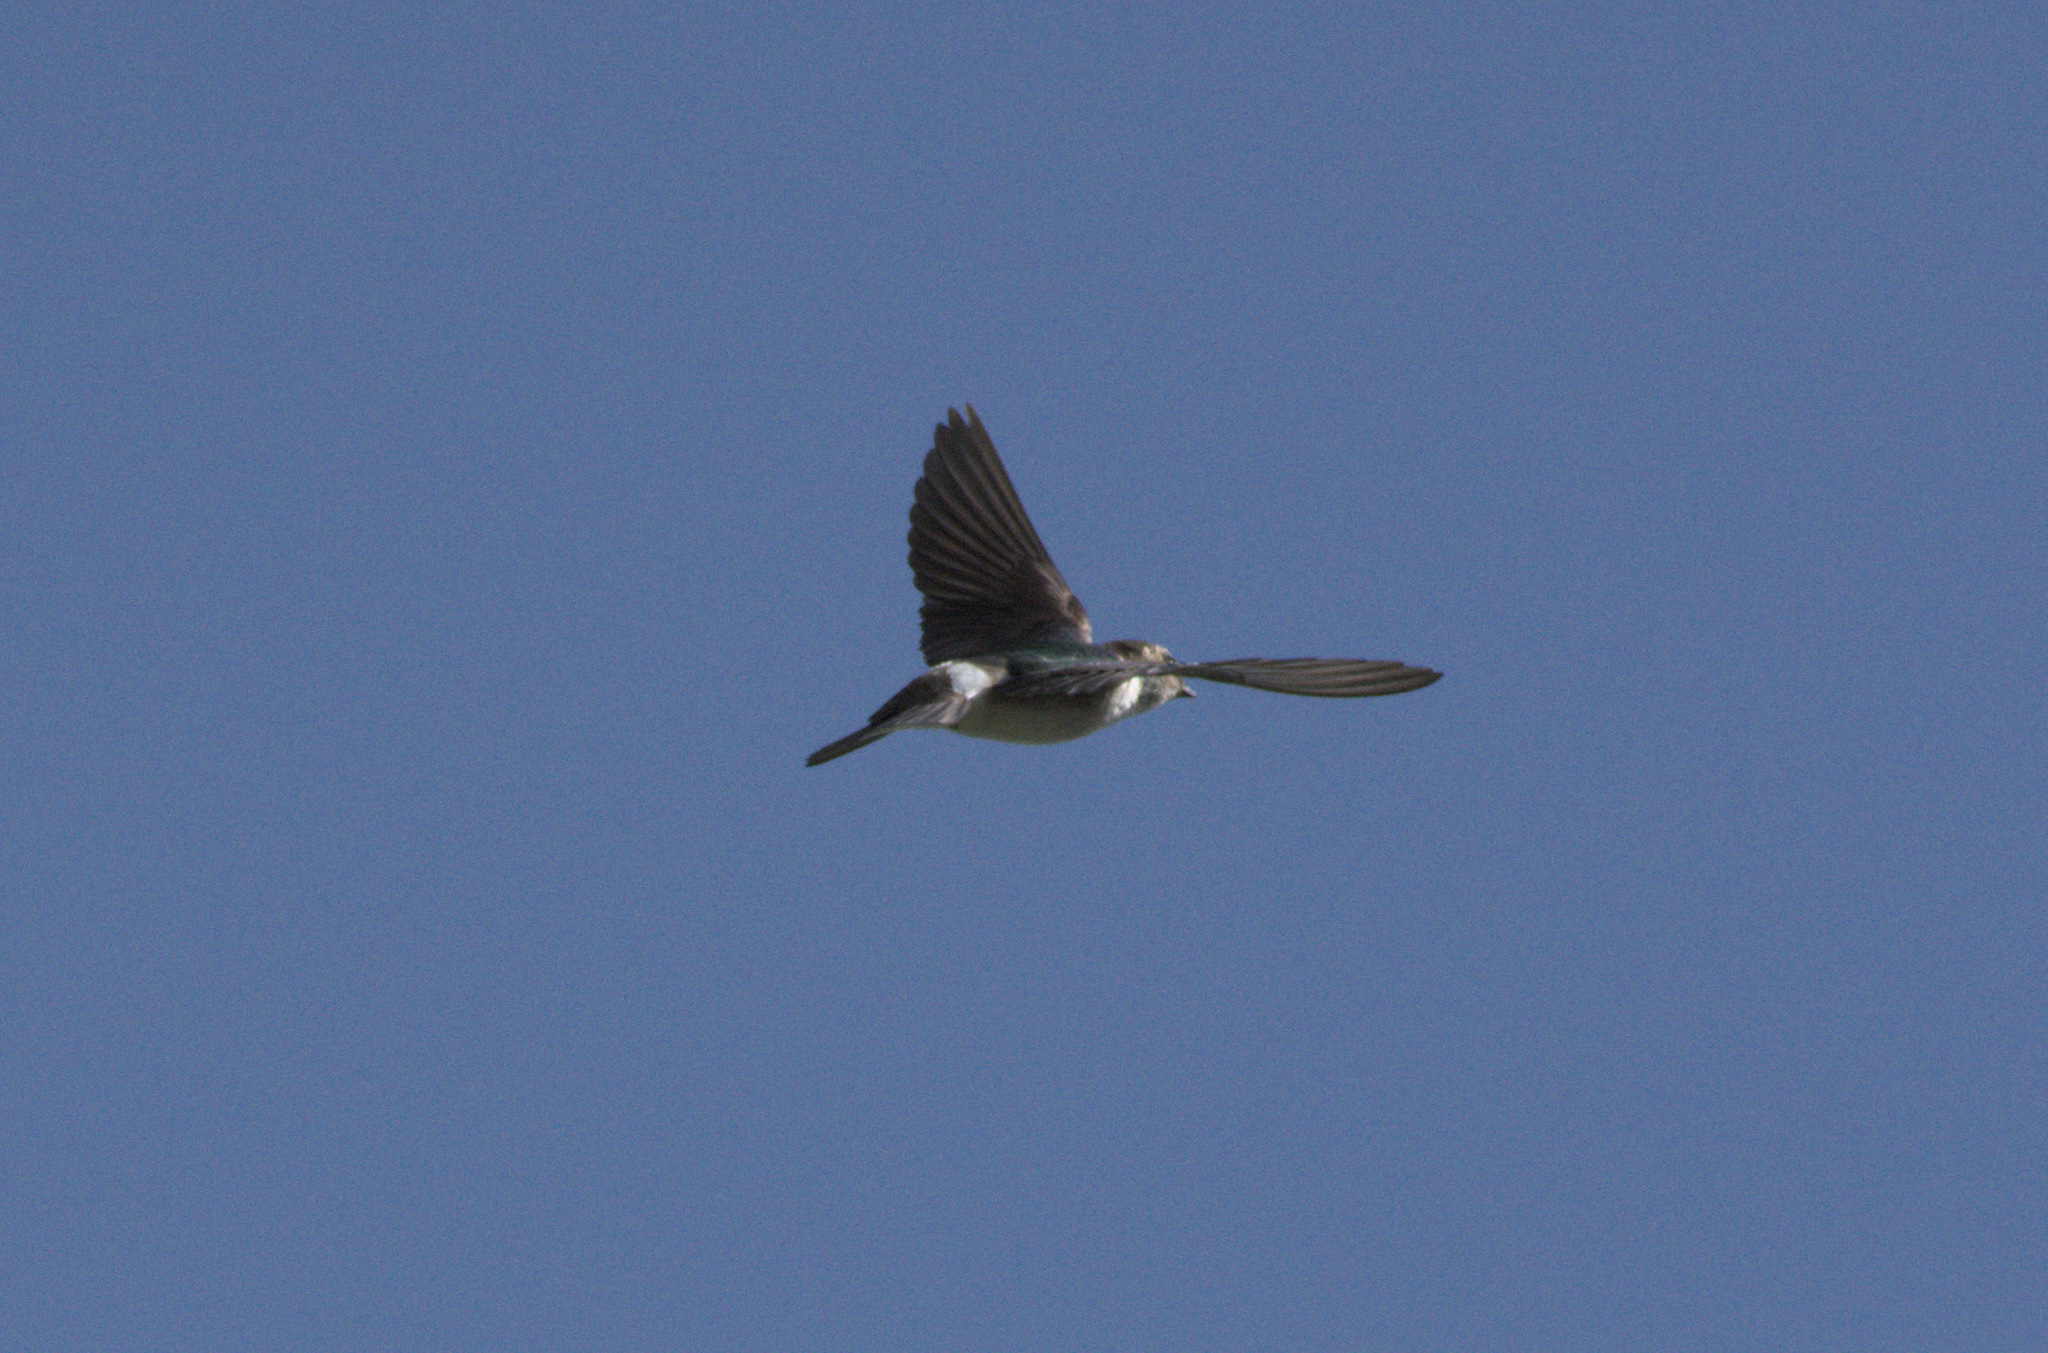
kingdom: Animalia
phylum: Chordata
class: Aves
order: Passeriformes
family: Hirundinidae
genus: Tachycineta
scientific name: Tachycineta thalassina
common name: Violet-green swallow
